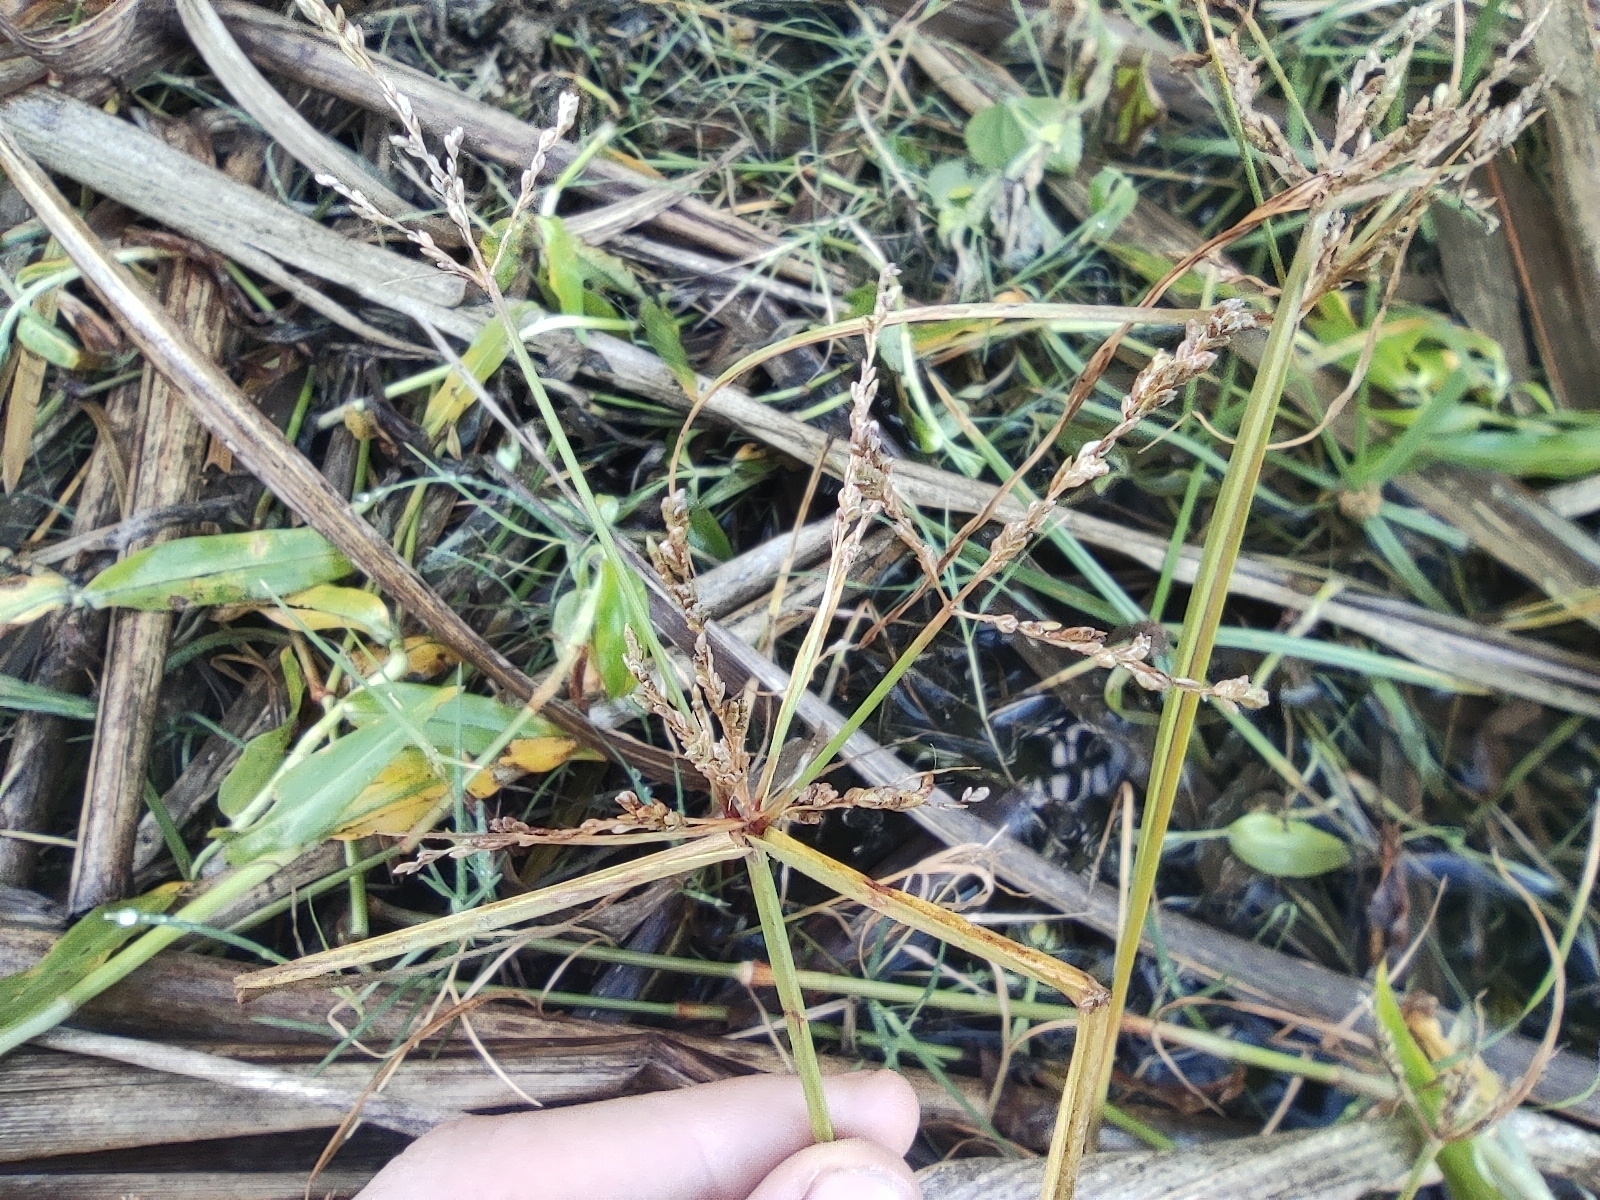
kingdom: Plantae
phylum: Tracheophyta
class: Liliopsida
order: Poales
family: Cyperaceae
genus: Cyperus
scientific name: Cyperus iria
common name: Ricefield flatsedge
